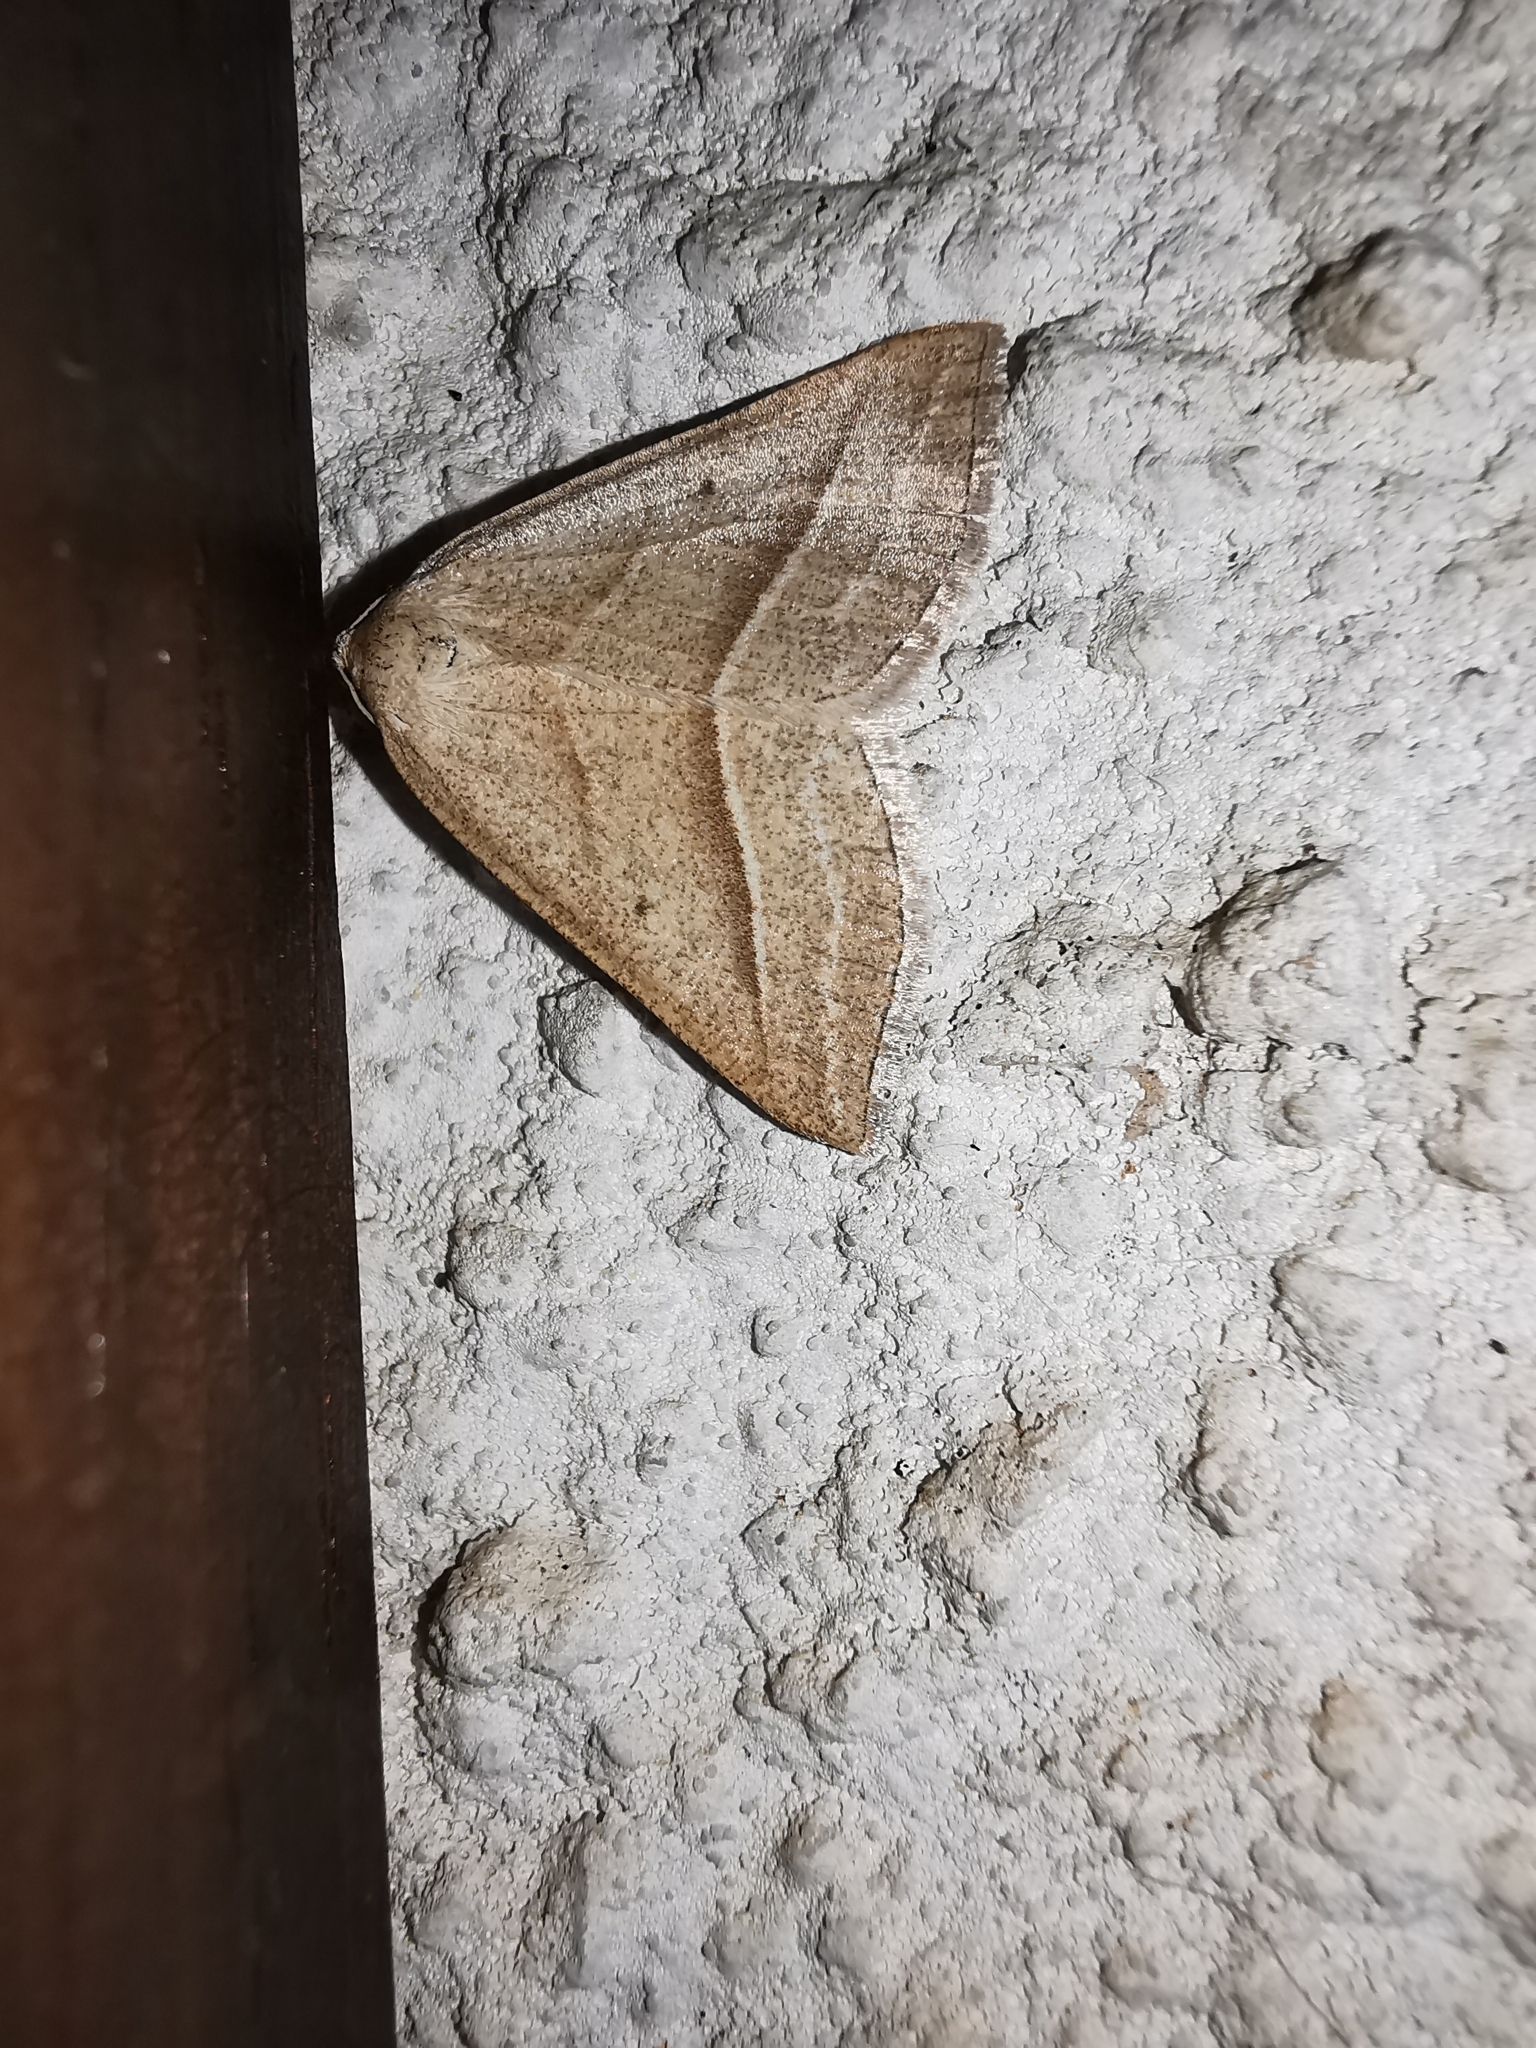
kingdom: Animalia
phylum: Arthropoda
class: Insecta
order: Lepidoptera
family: Pterophoridae
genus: Pterophorus
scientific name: Pterophorus Petrophora chlorosata
